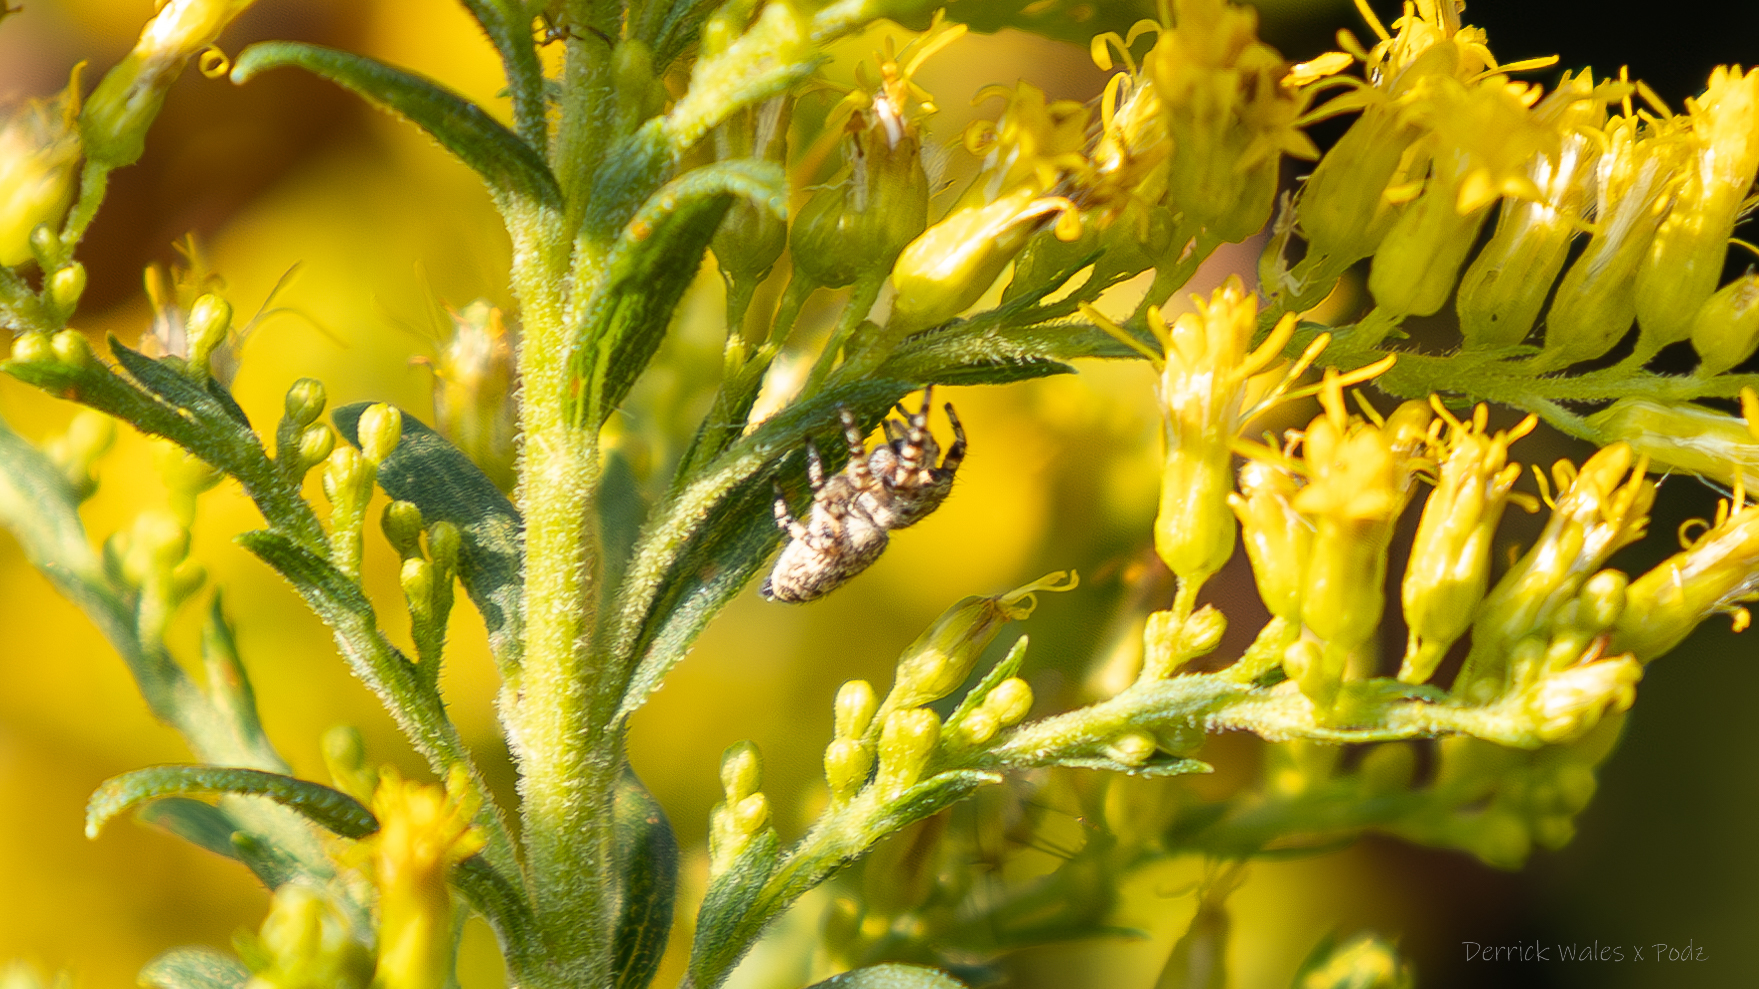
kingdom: Animalia
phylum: Arthropoda
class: Arachnida
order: Araneae
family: Salticidae
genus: Pelegrina
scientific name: Pelegrina galathea
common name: Jumping spiders
